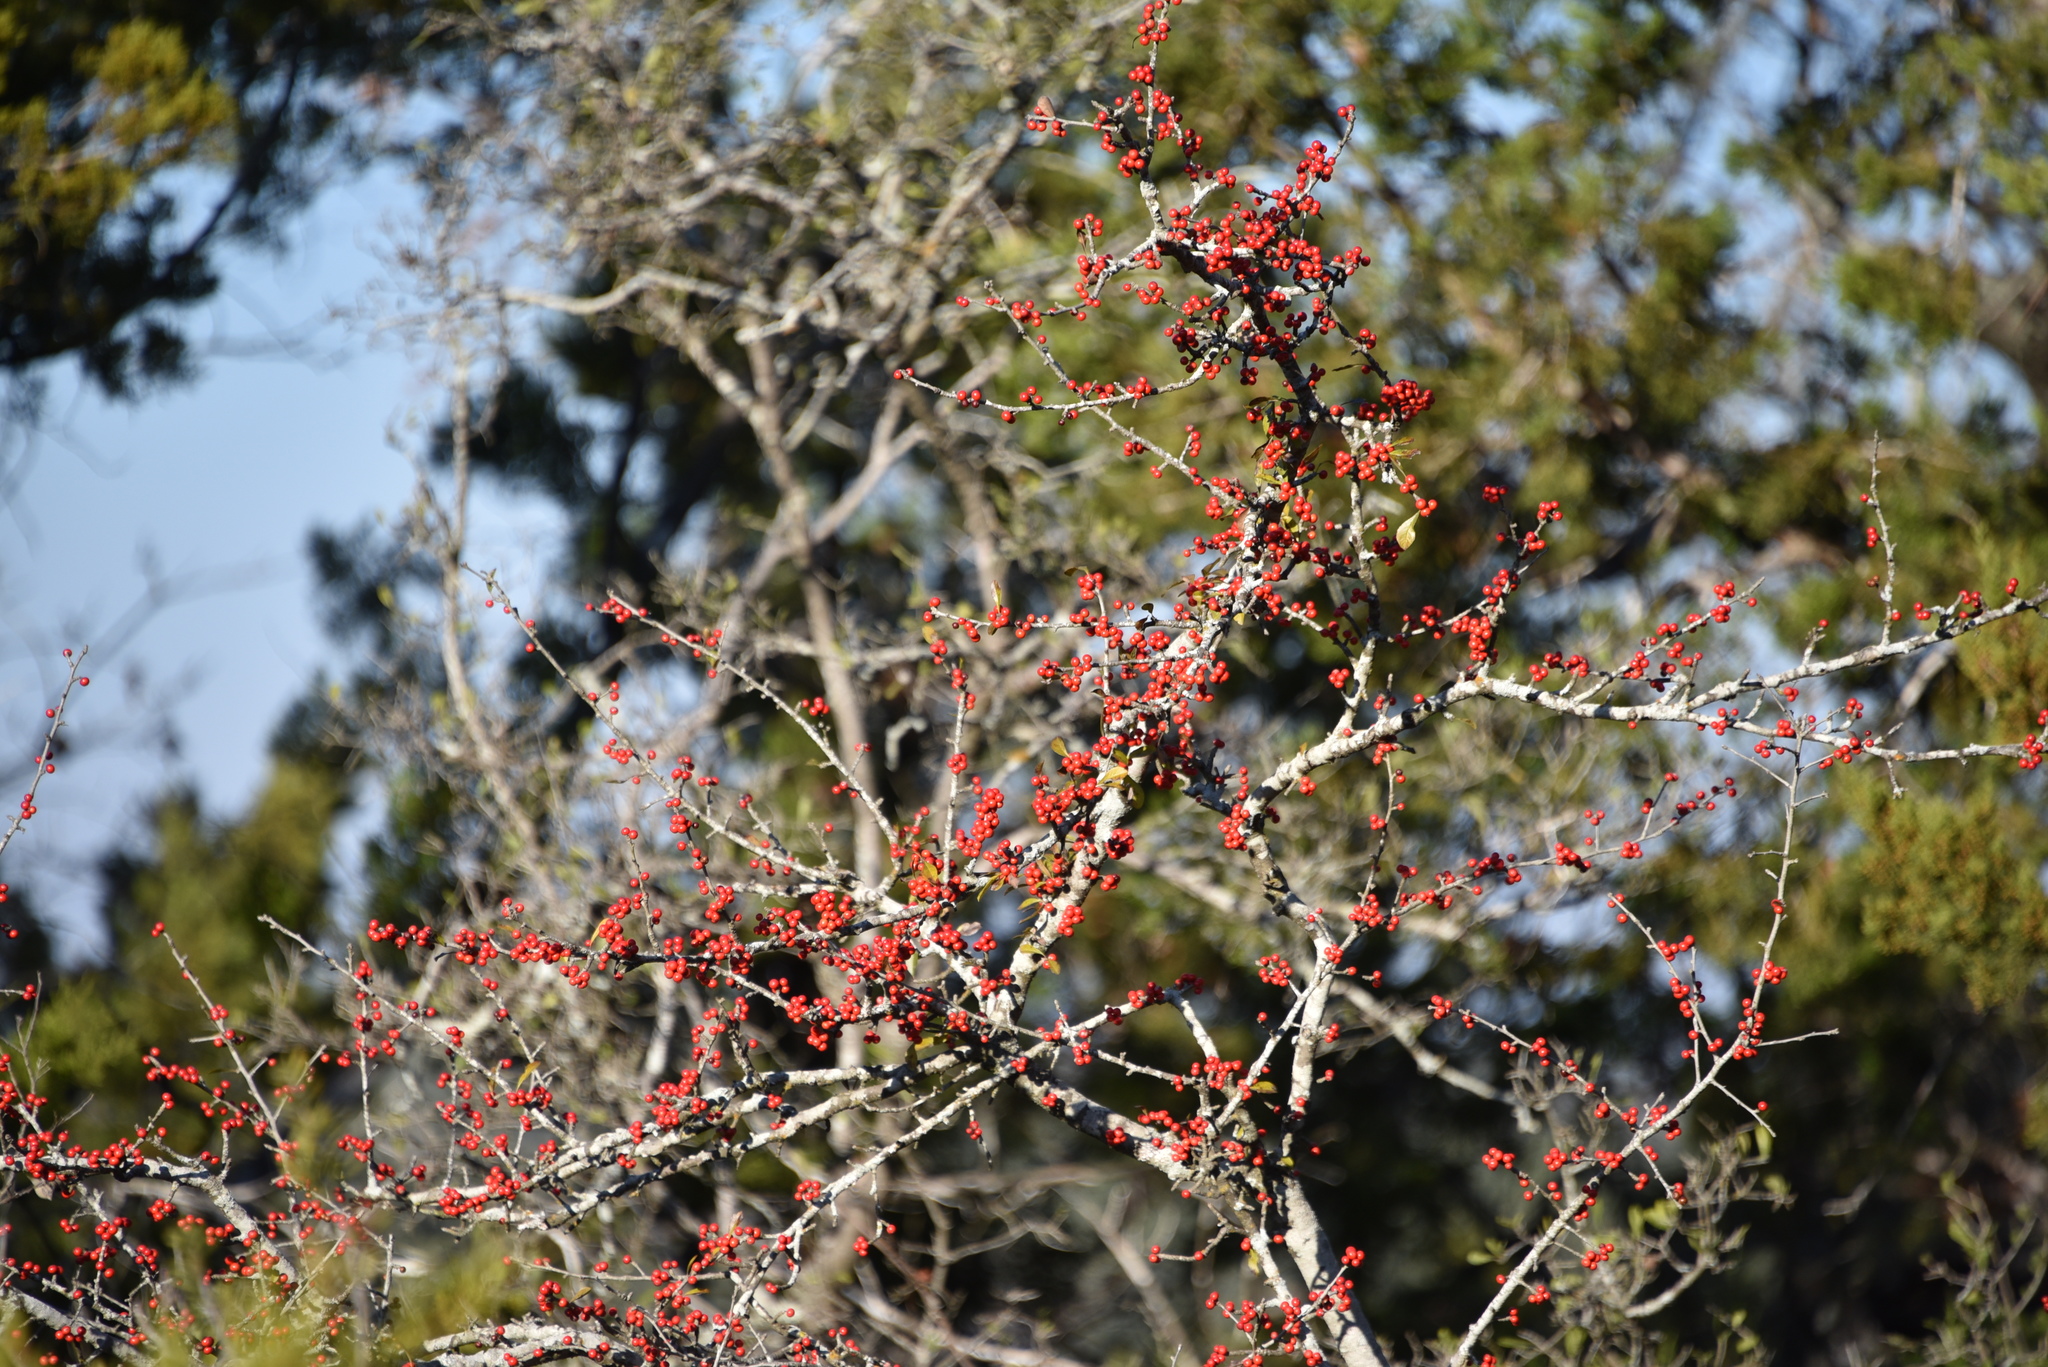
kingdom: Plantae
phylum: Tracheophyta
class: Magnoliopsida
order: Aquifoliales
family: Aquifoliaceae
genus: Ilex
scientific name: Ilex decidua
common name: Possum-haw
